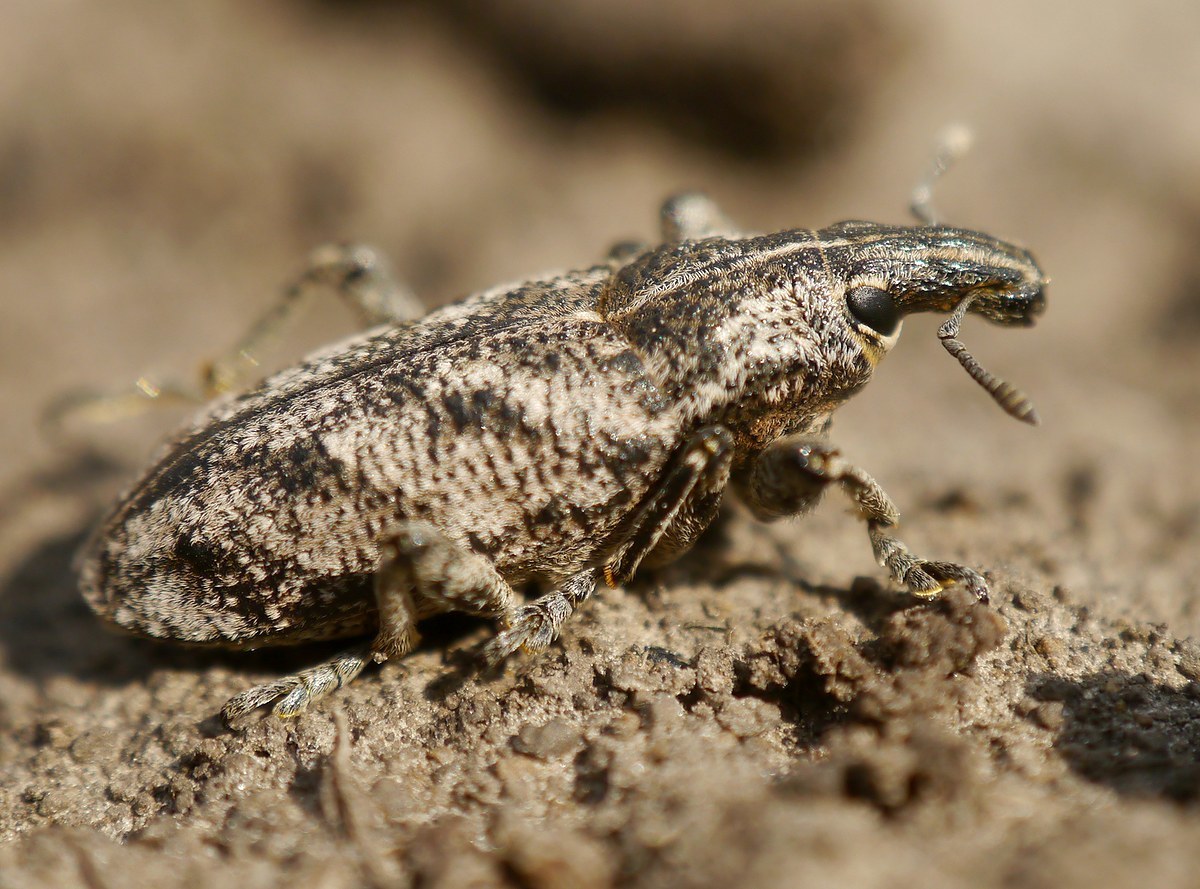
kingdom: Animalia
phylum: Arthropoda
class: Insecta
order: Coleoptera
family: Curculionidae
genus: Cleonis
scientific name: Cleonis pigra
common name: Large thistle weevil
